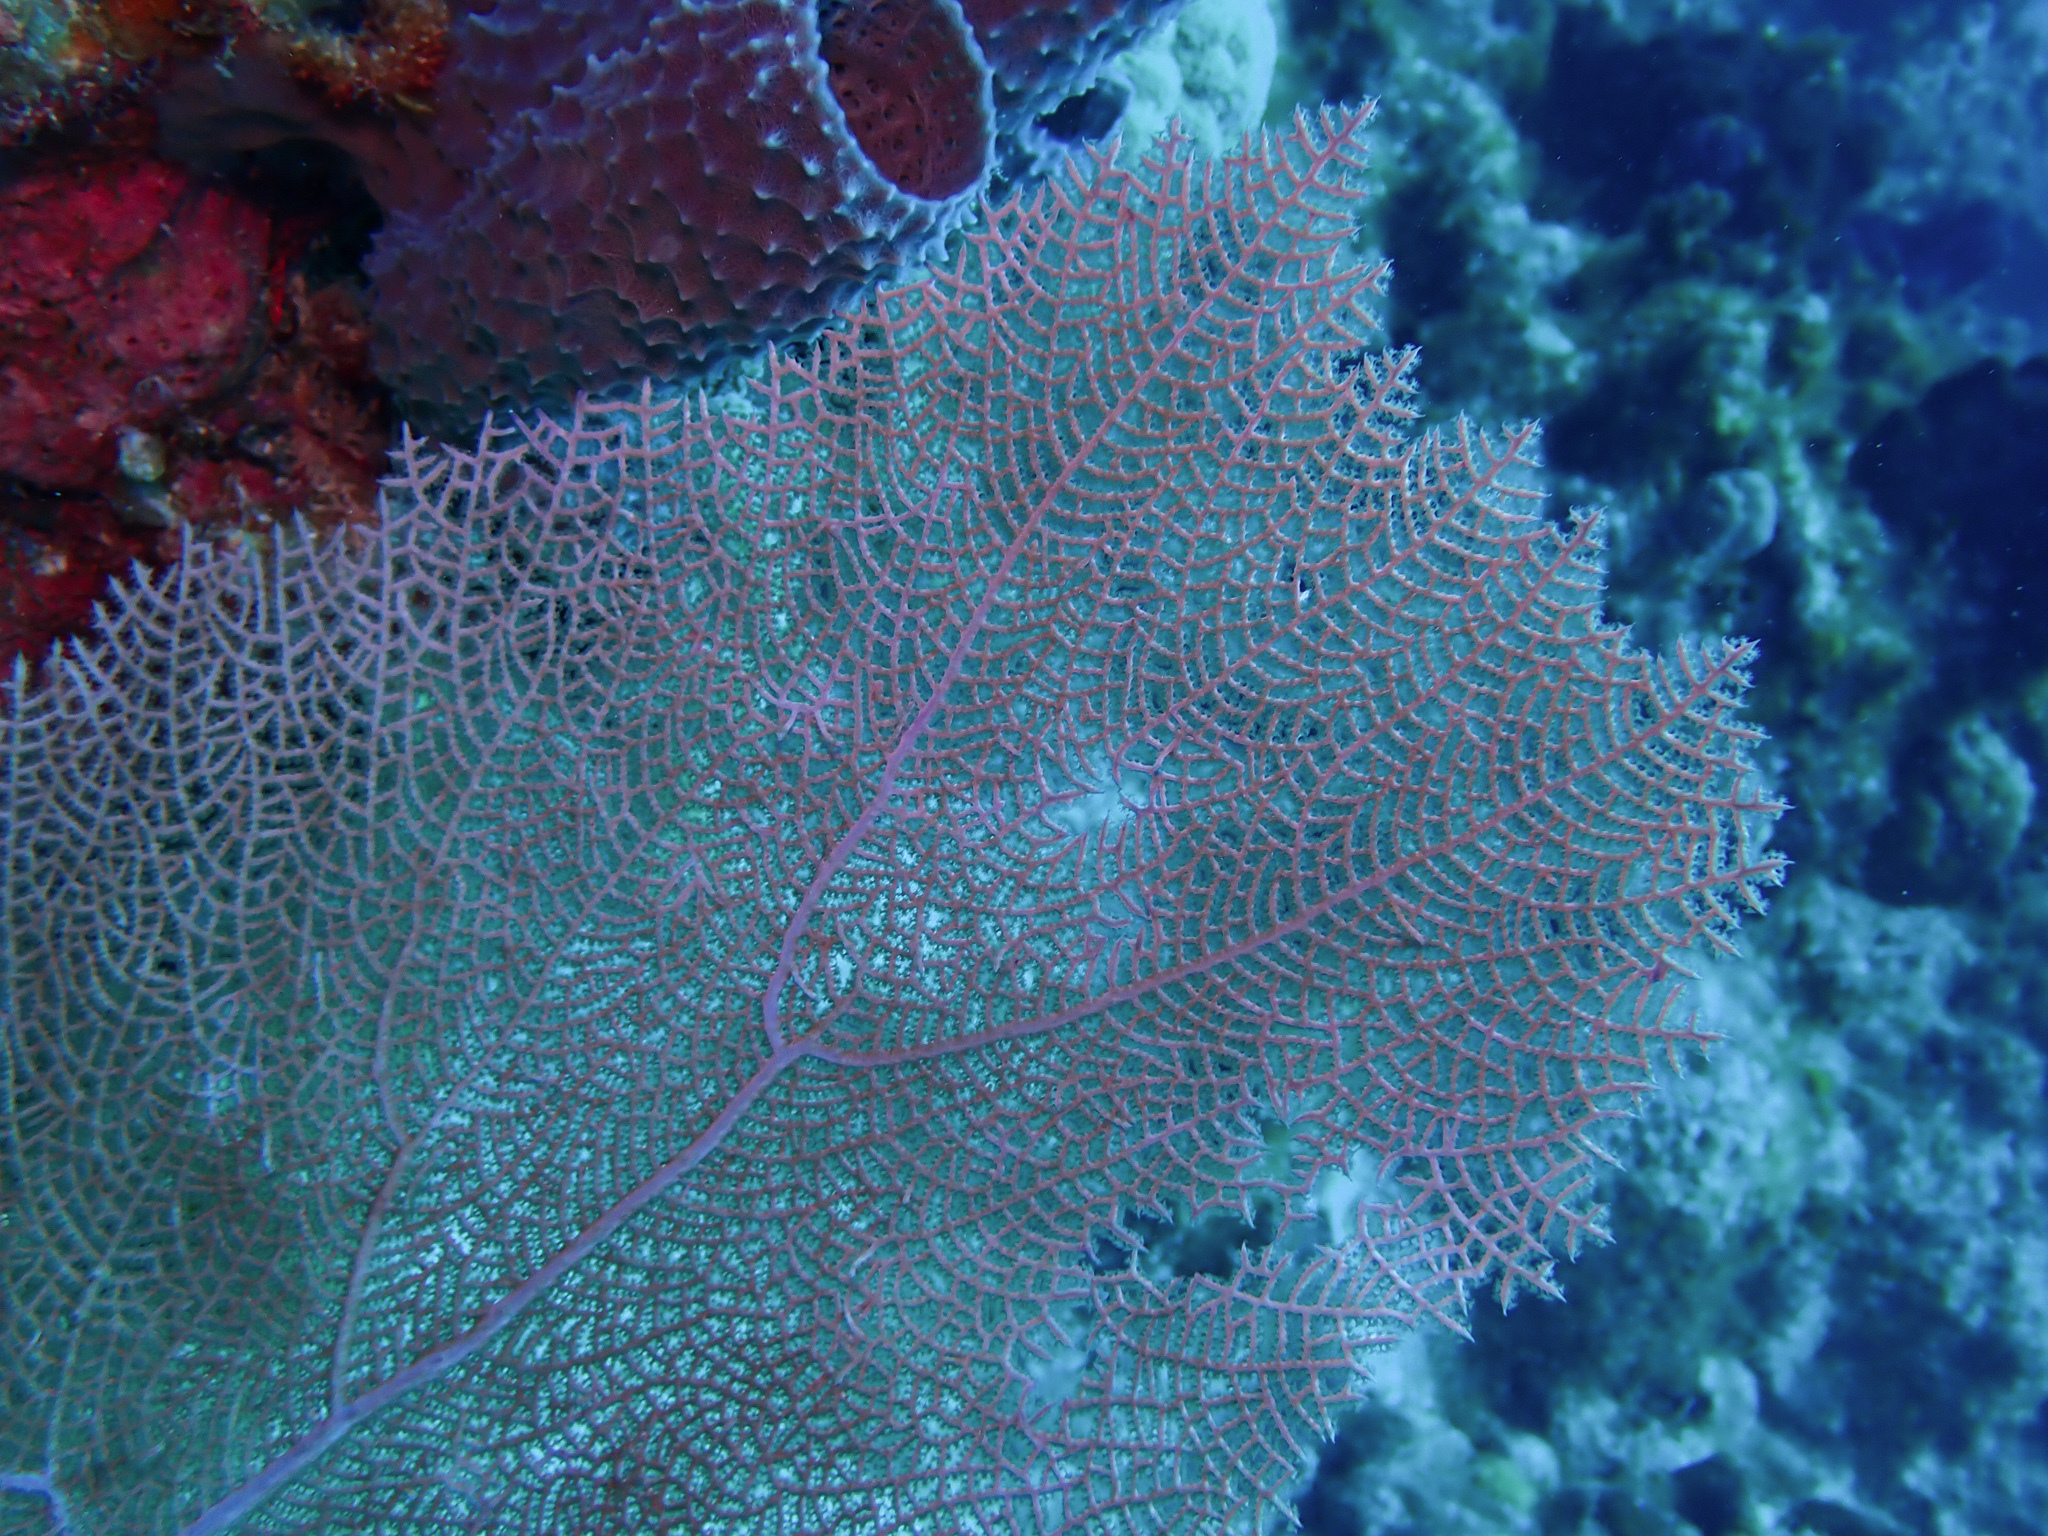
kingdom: Animalia
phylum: Cnidaria
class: Anthozoa
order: Malacalcyonacea
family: Gorgoniidae
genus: Gorgonia
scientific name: Gorgonia ventalina
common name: Common sea fan
